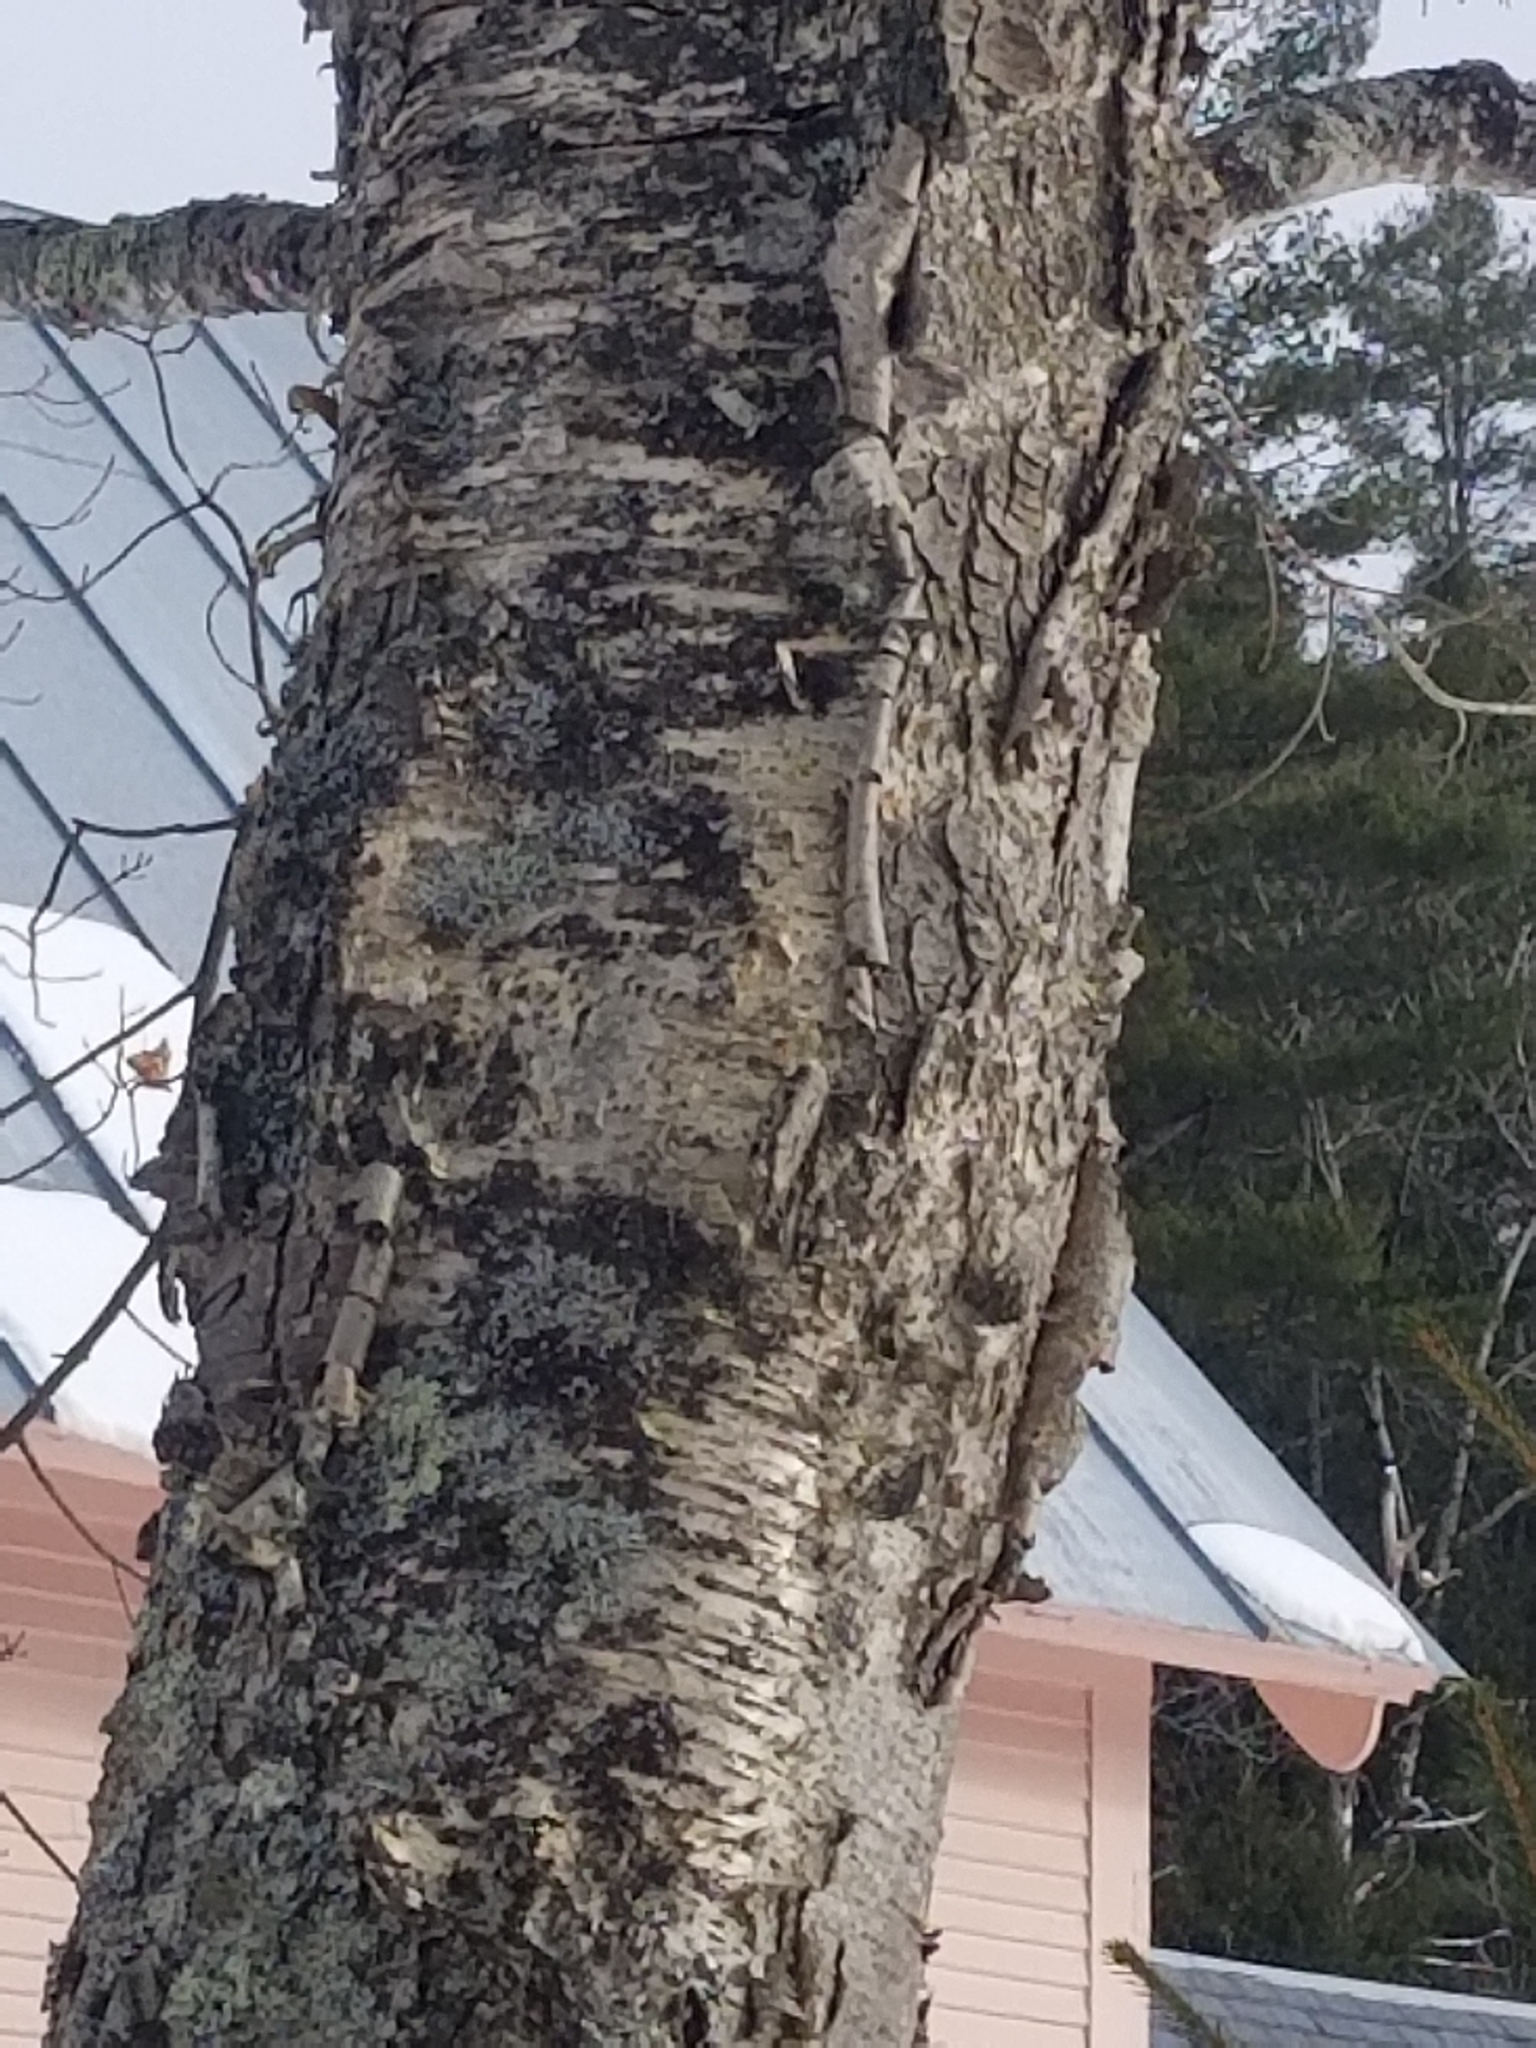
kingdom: Plantae
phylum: Tracheophyta
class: Magnoliopsida
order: Fagales
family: Betulaceae
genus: Betula
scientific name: Betula alleghaniensis
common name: Yellow birch
